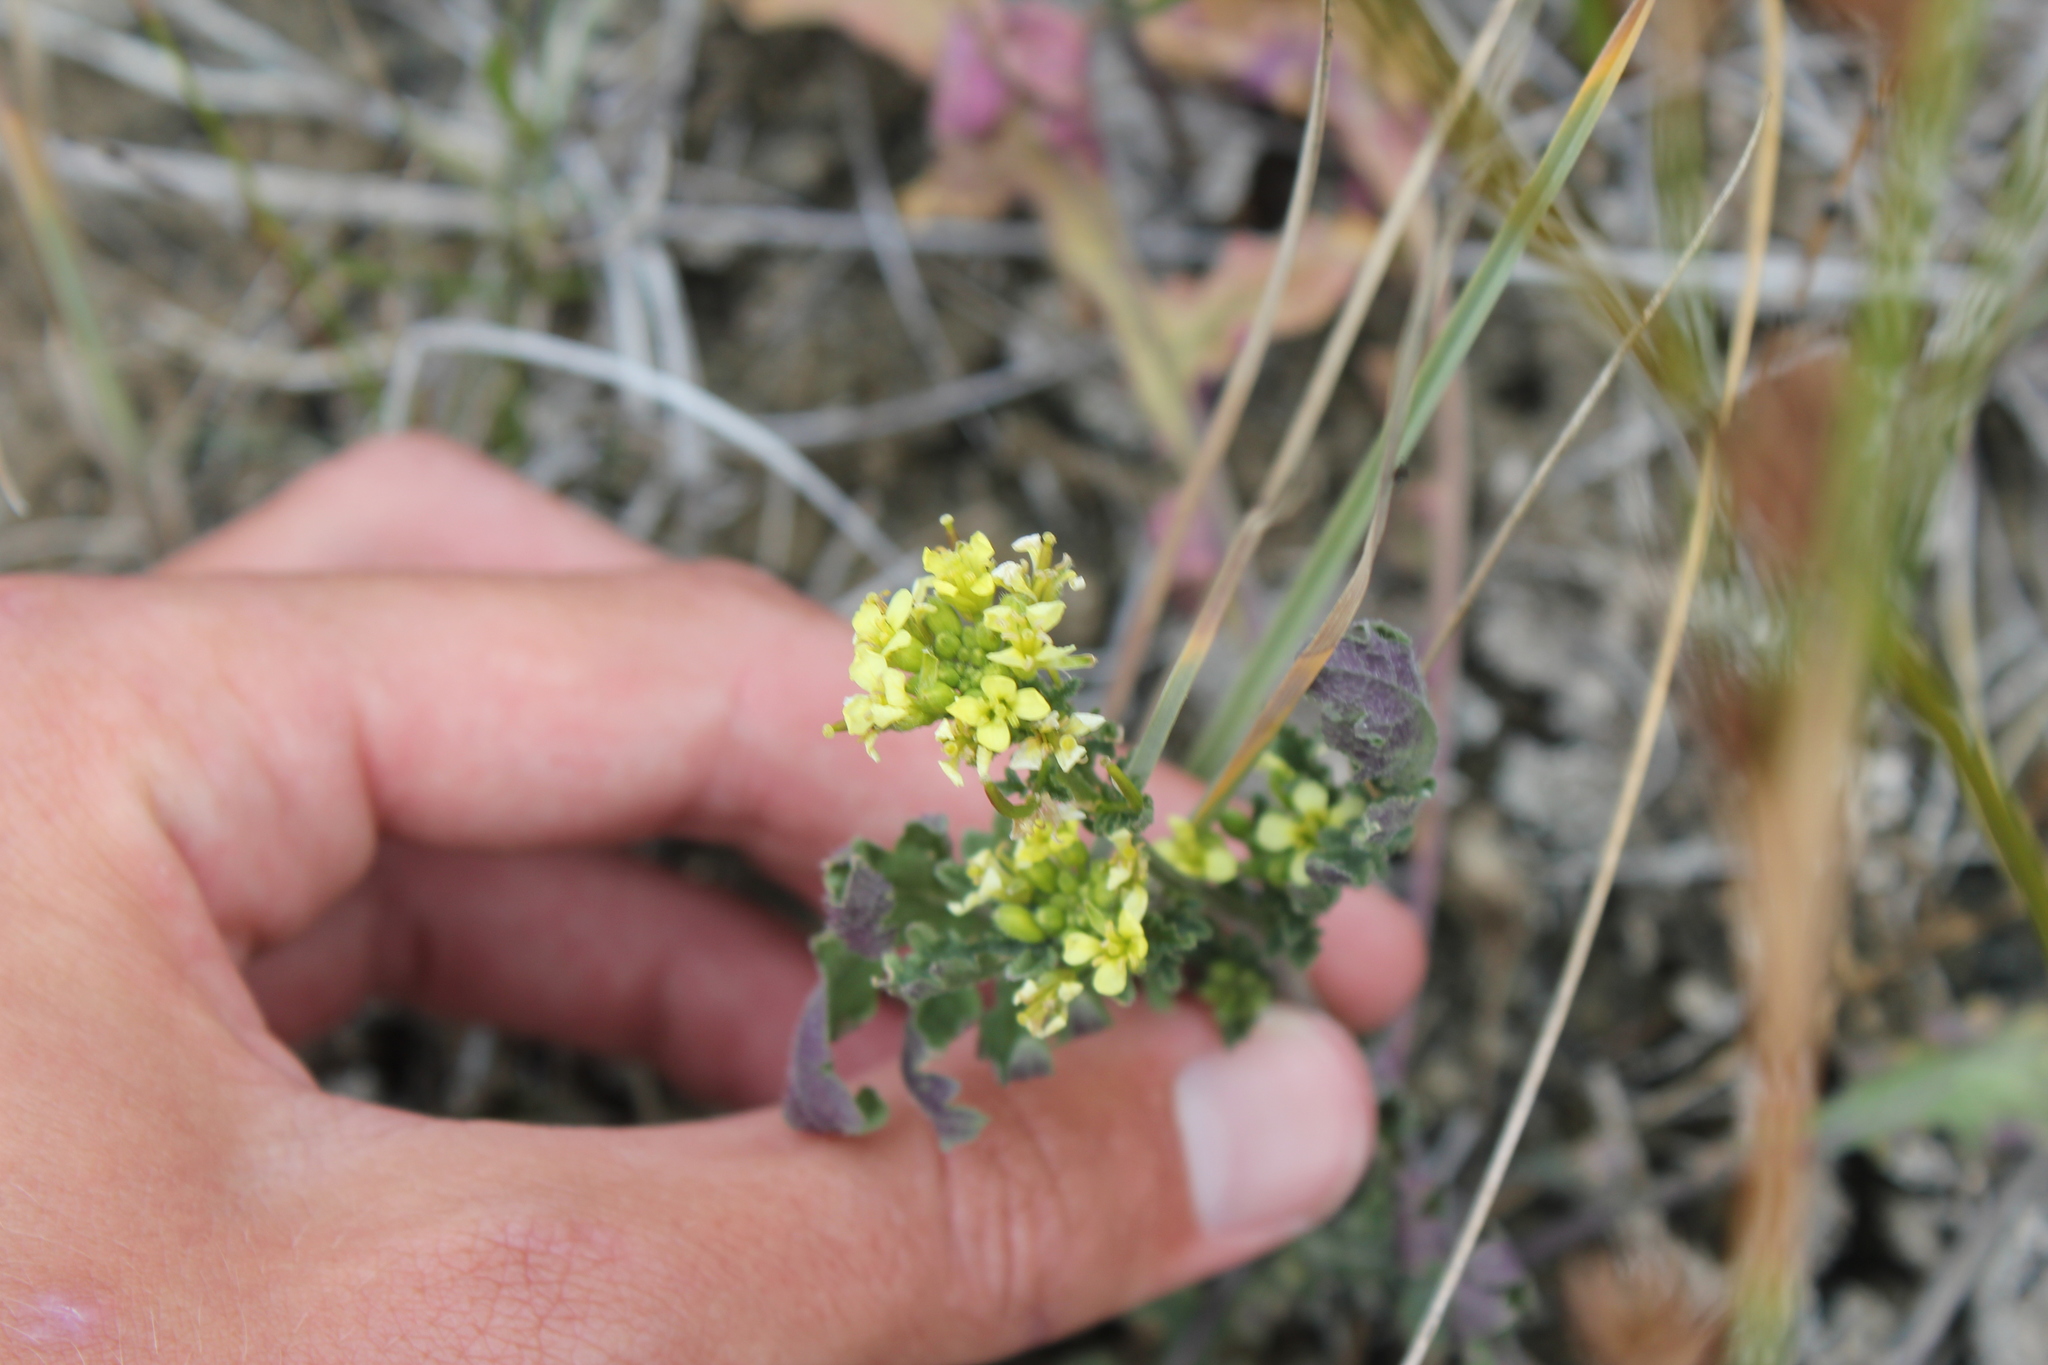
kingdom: Plantae
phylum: Tracheophyta
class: Magnoliopsida
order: Brassicales
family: Brassicaceae
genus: Erucastrum
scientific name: Erucastrum gallicum
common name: Hairy rocket
